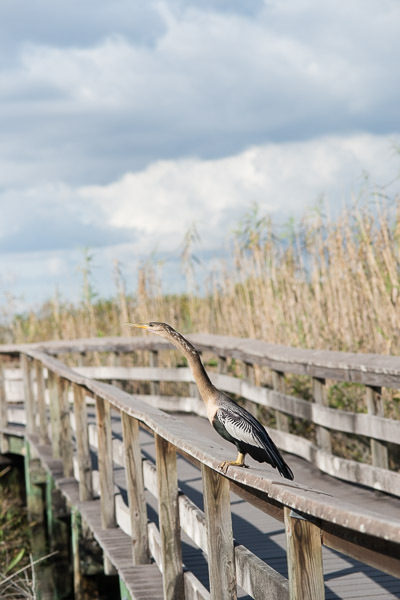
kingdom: Animalia
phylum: Chordata
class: Aves
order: Suliformes
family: Anhingidae
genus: Anhinga
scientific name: Anhinga anhinga
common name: Anhinga
